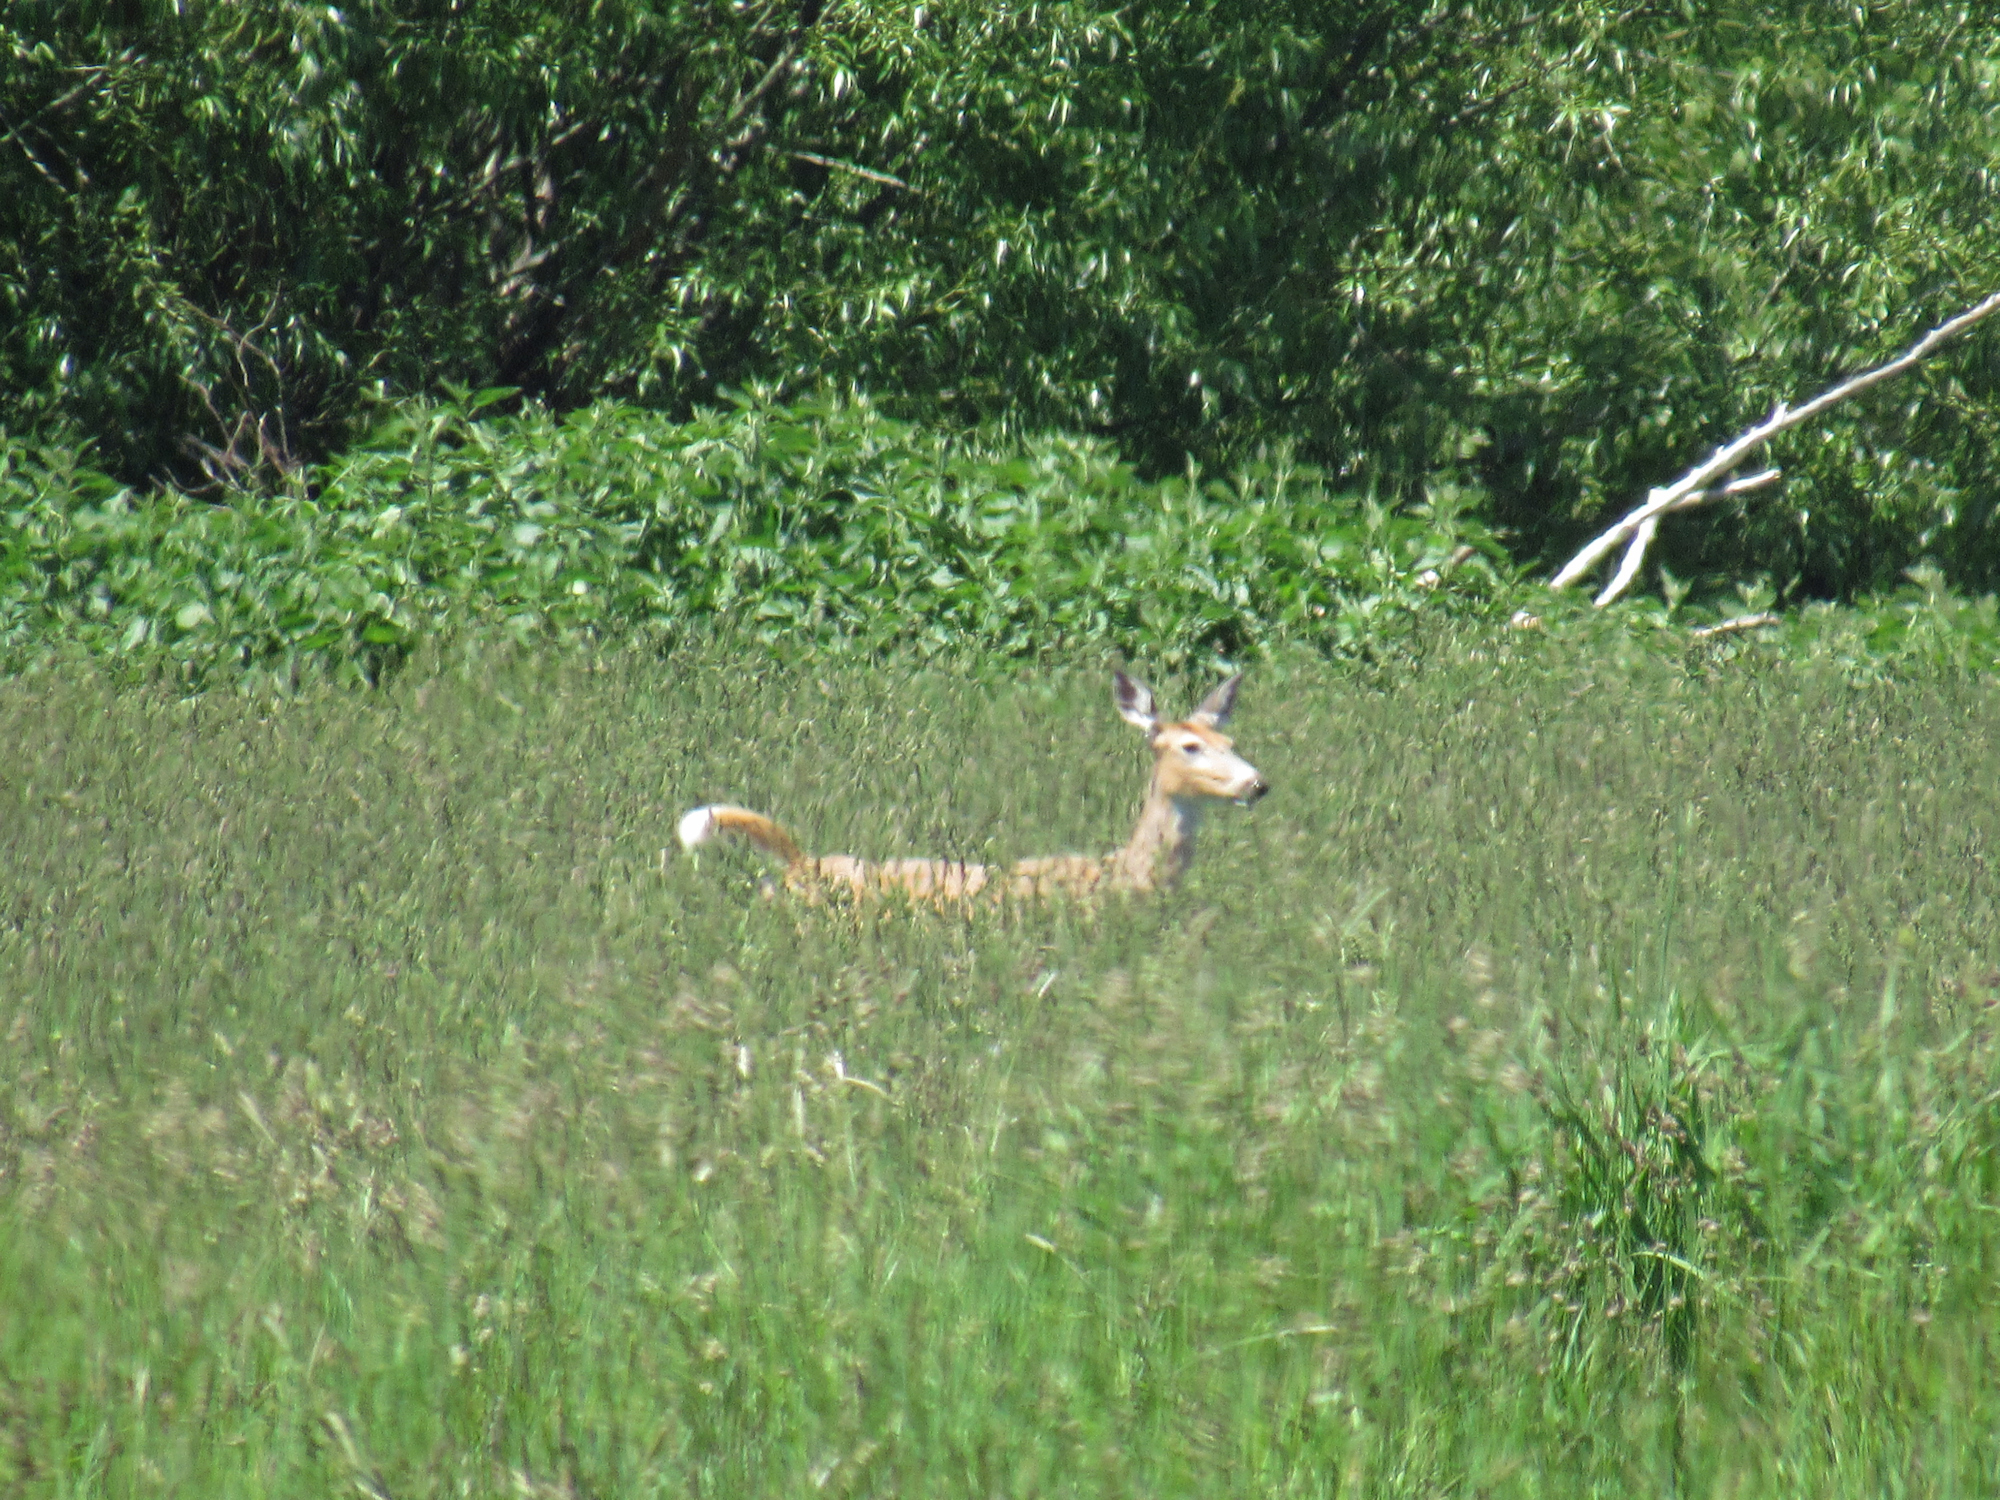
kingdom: Animalia
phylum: Chordata
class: Mammalia
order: Artiodactyla
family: Cervidae
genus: Odocoileus
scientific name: Odocoileus virginianus
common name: White-tailed deer
